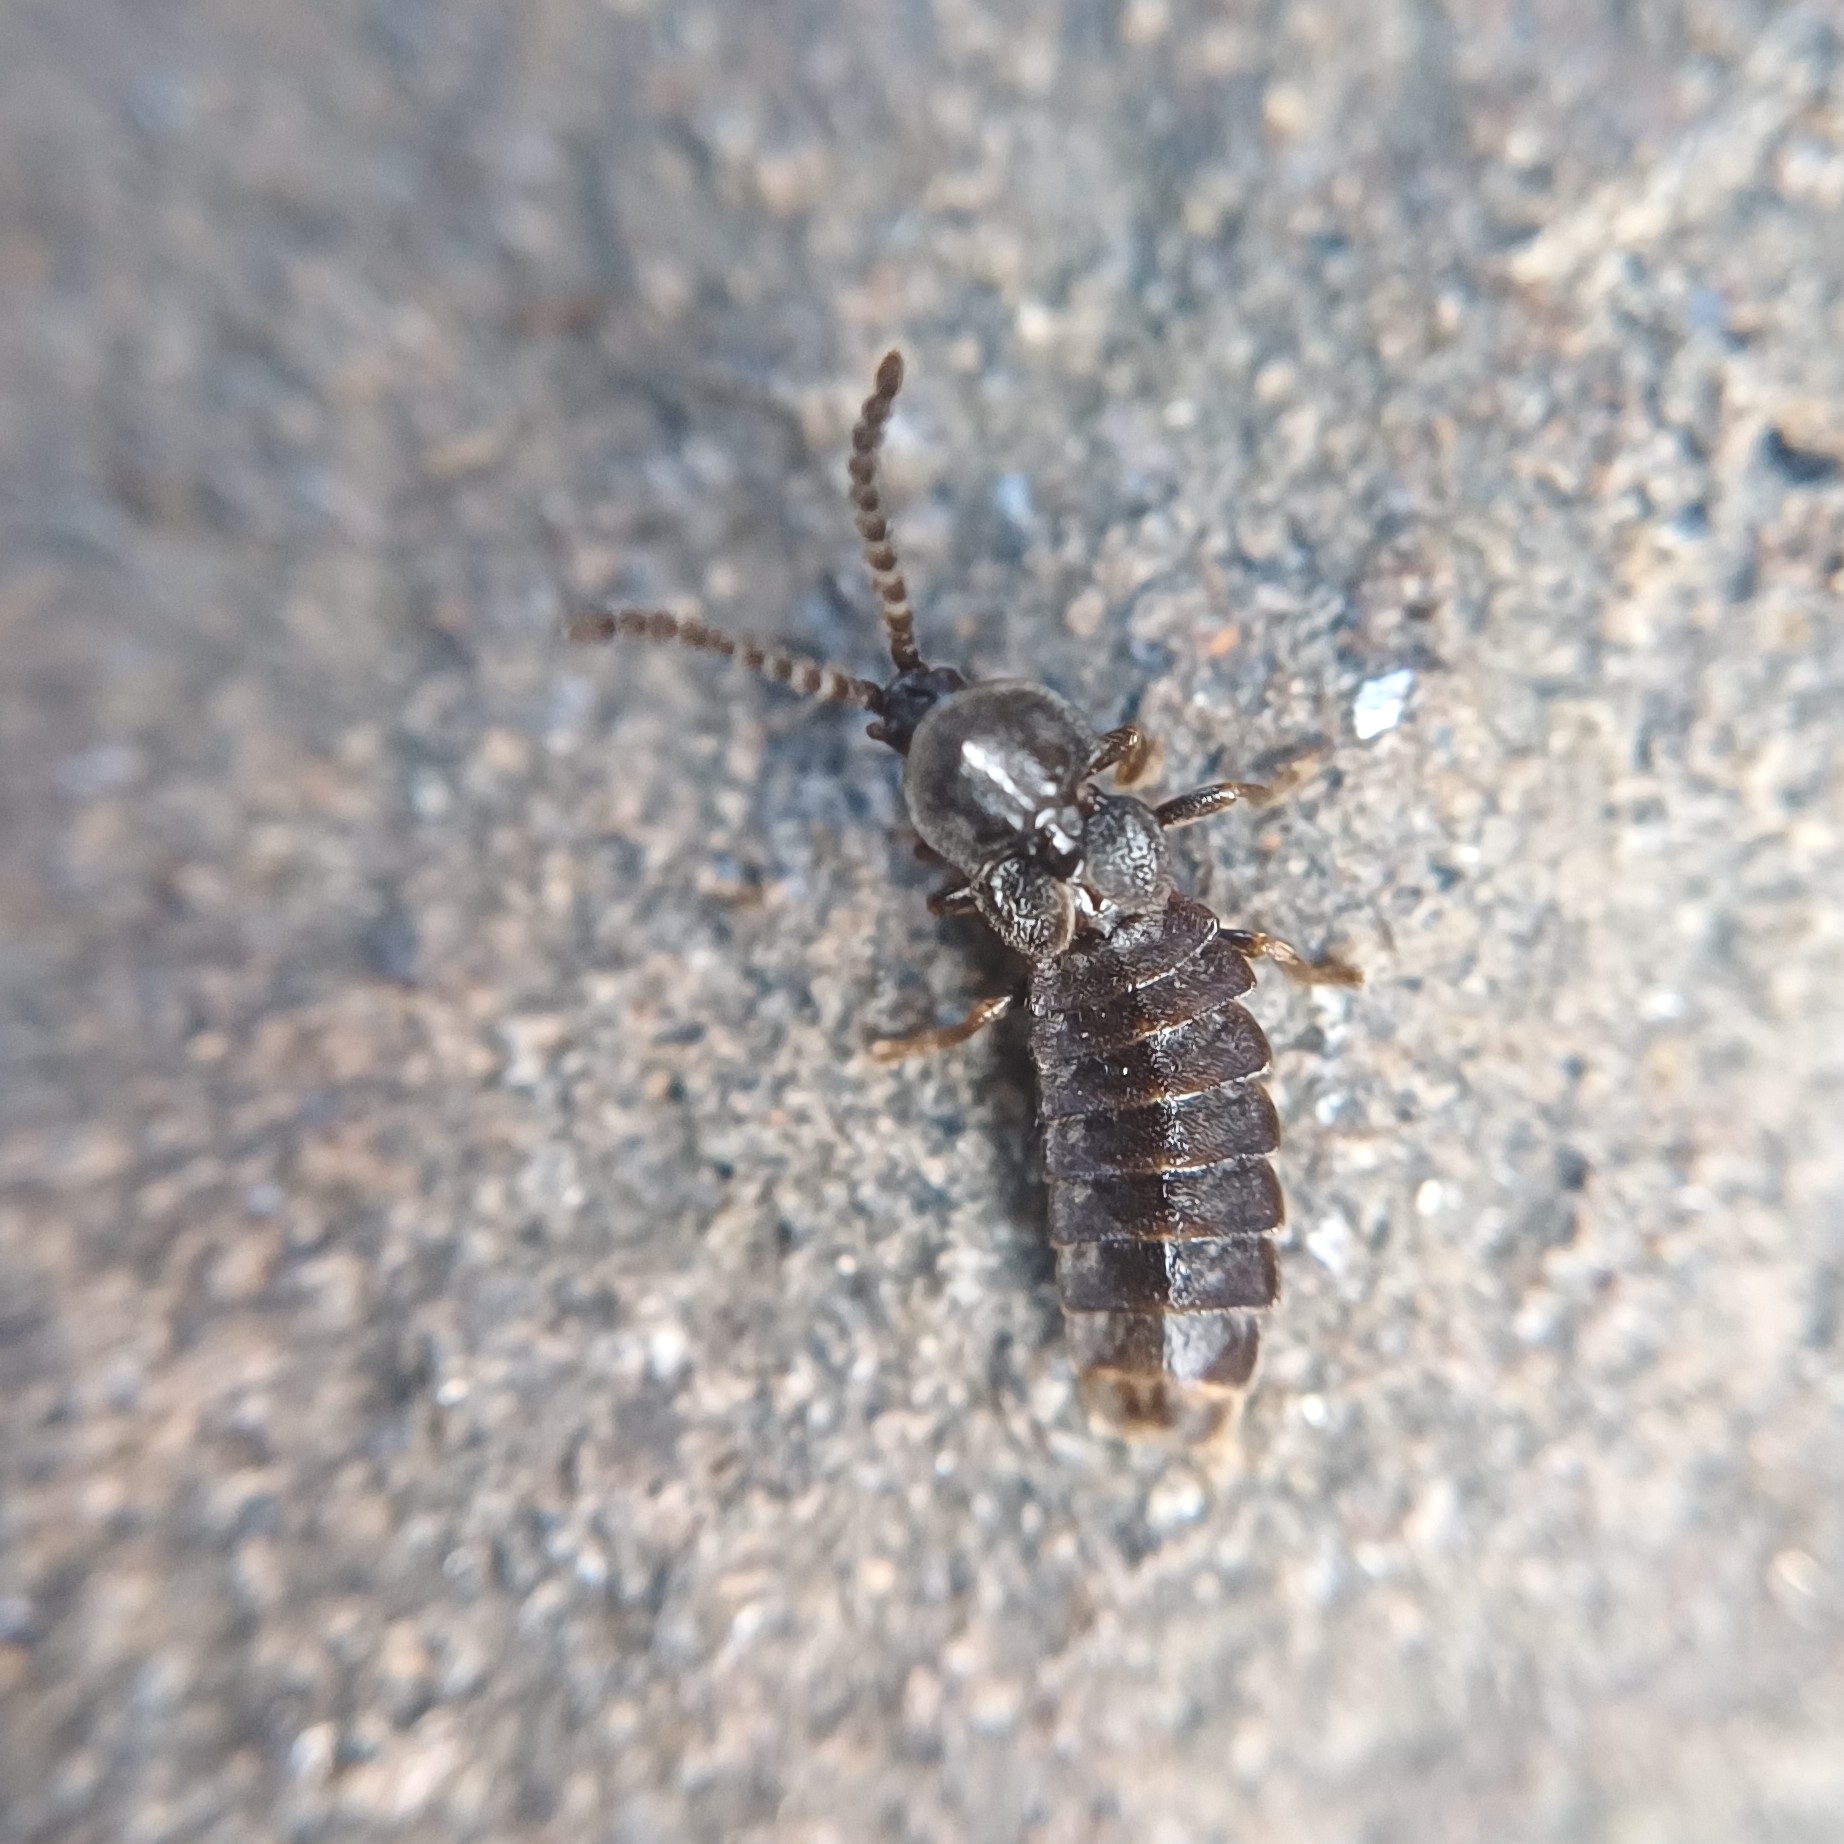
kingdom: Animalia
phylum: Arthropoda
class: Insecta
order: Coleoptera
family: Lampyridae
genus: Phosphaenus
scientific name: Phosphaenus hemipterus
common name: Short-winged firefly
